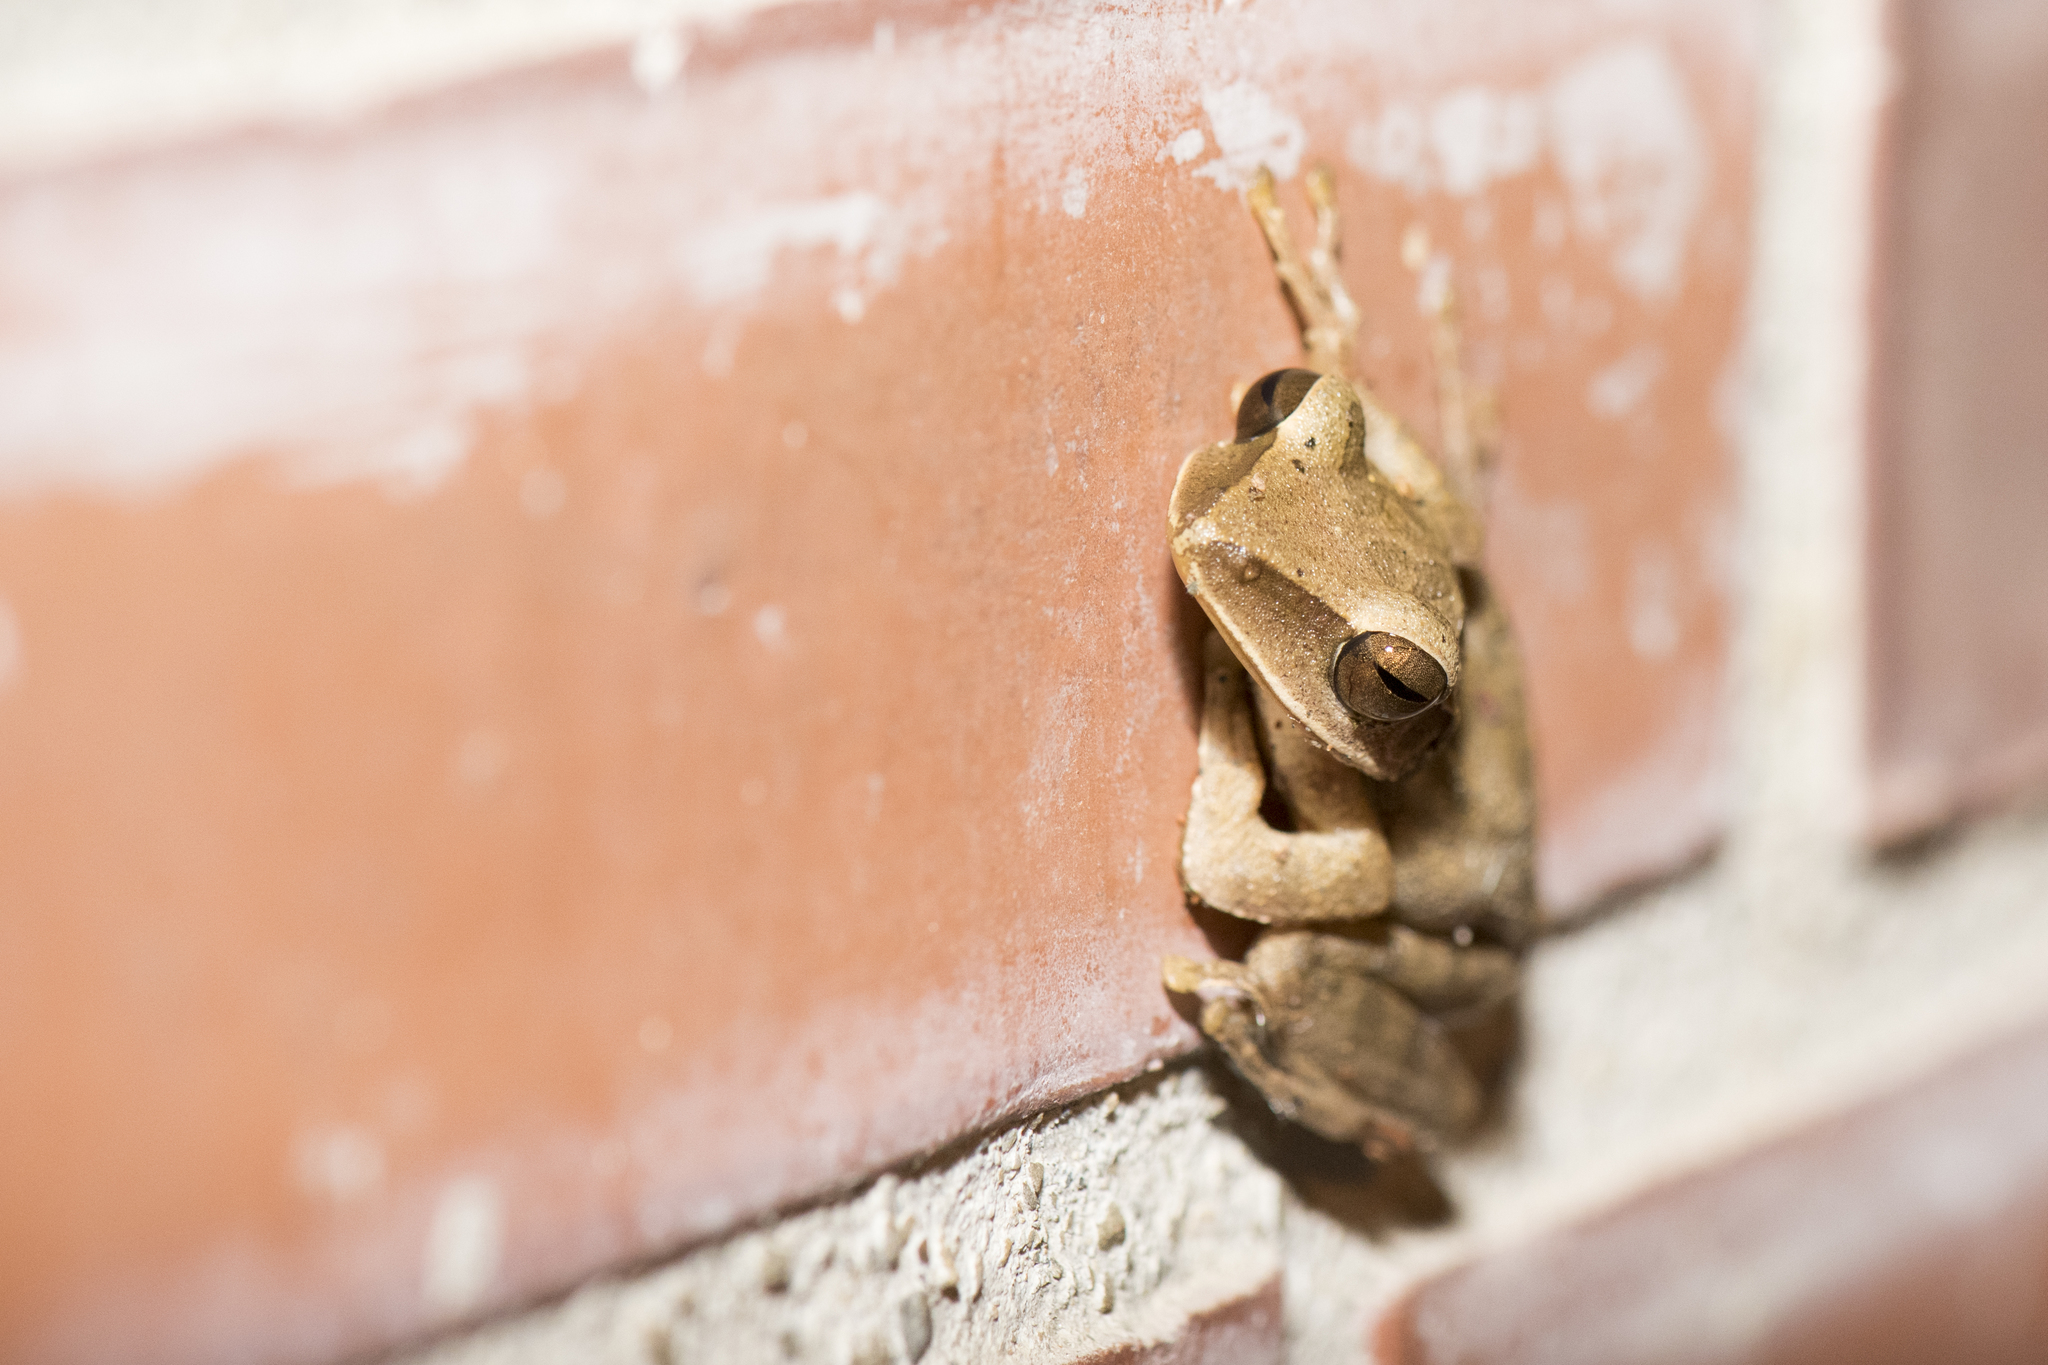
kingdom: Animalia
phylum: Chordata
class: Amphibia
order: Anura
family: Rhacophoridae
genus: Polypedates
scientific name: Polypedates braueri
